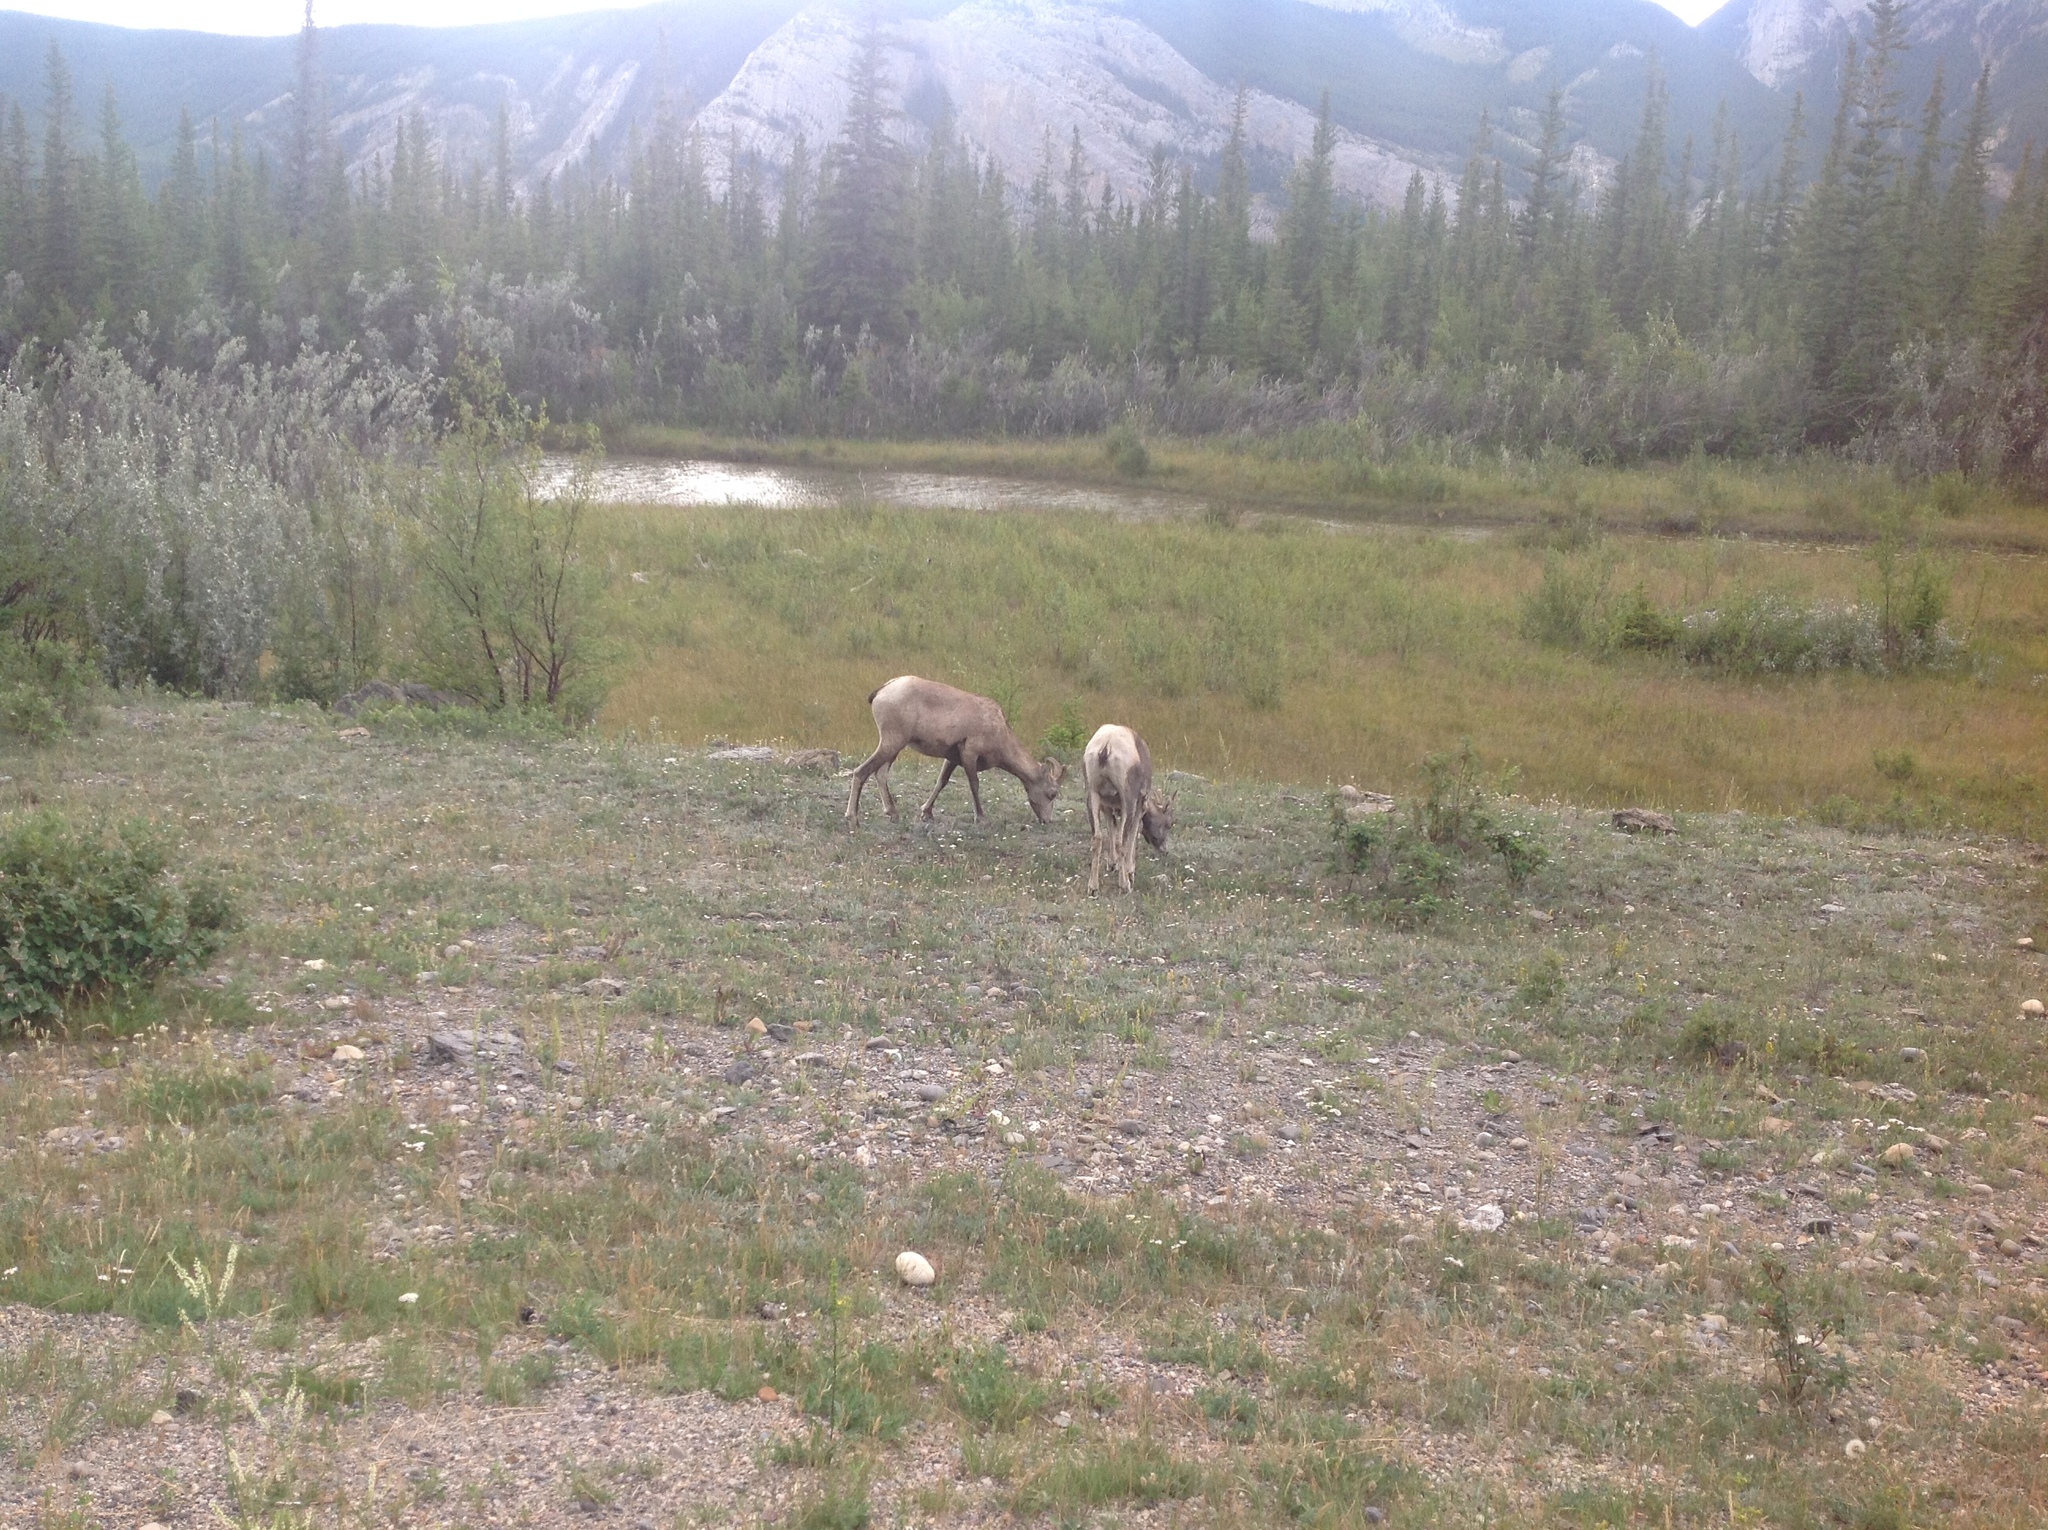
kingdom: Animalia
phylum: Chordata
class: Mammalia
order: Artiodactyla
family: Bovidae
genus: Ovis
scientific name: Ovis canadensis
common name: Bighorn sheep
